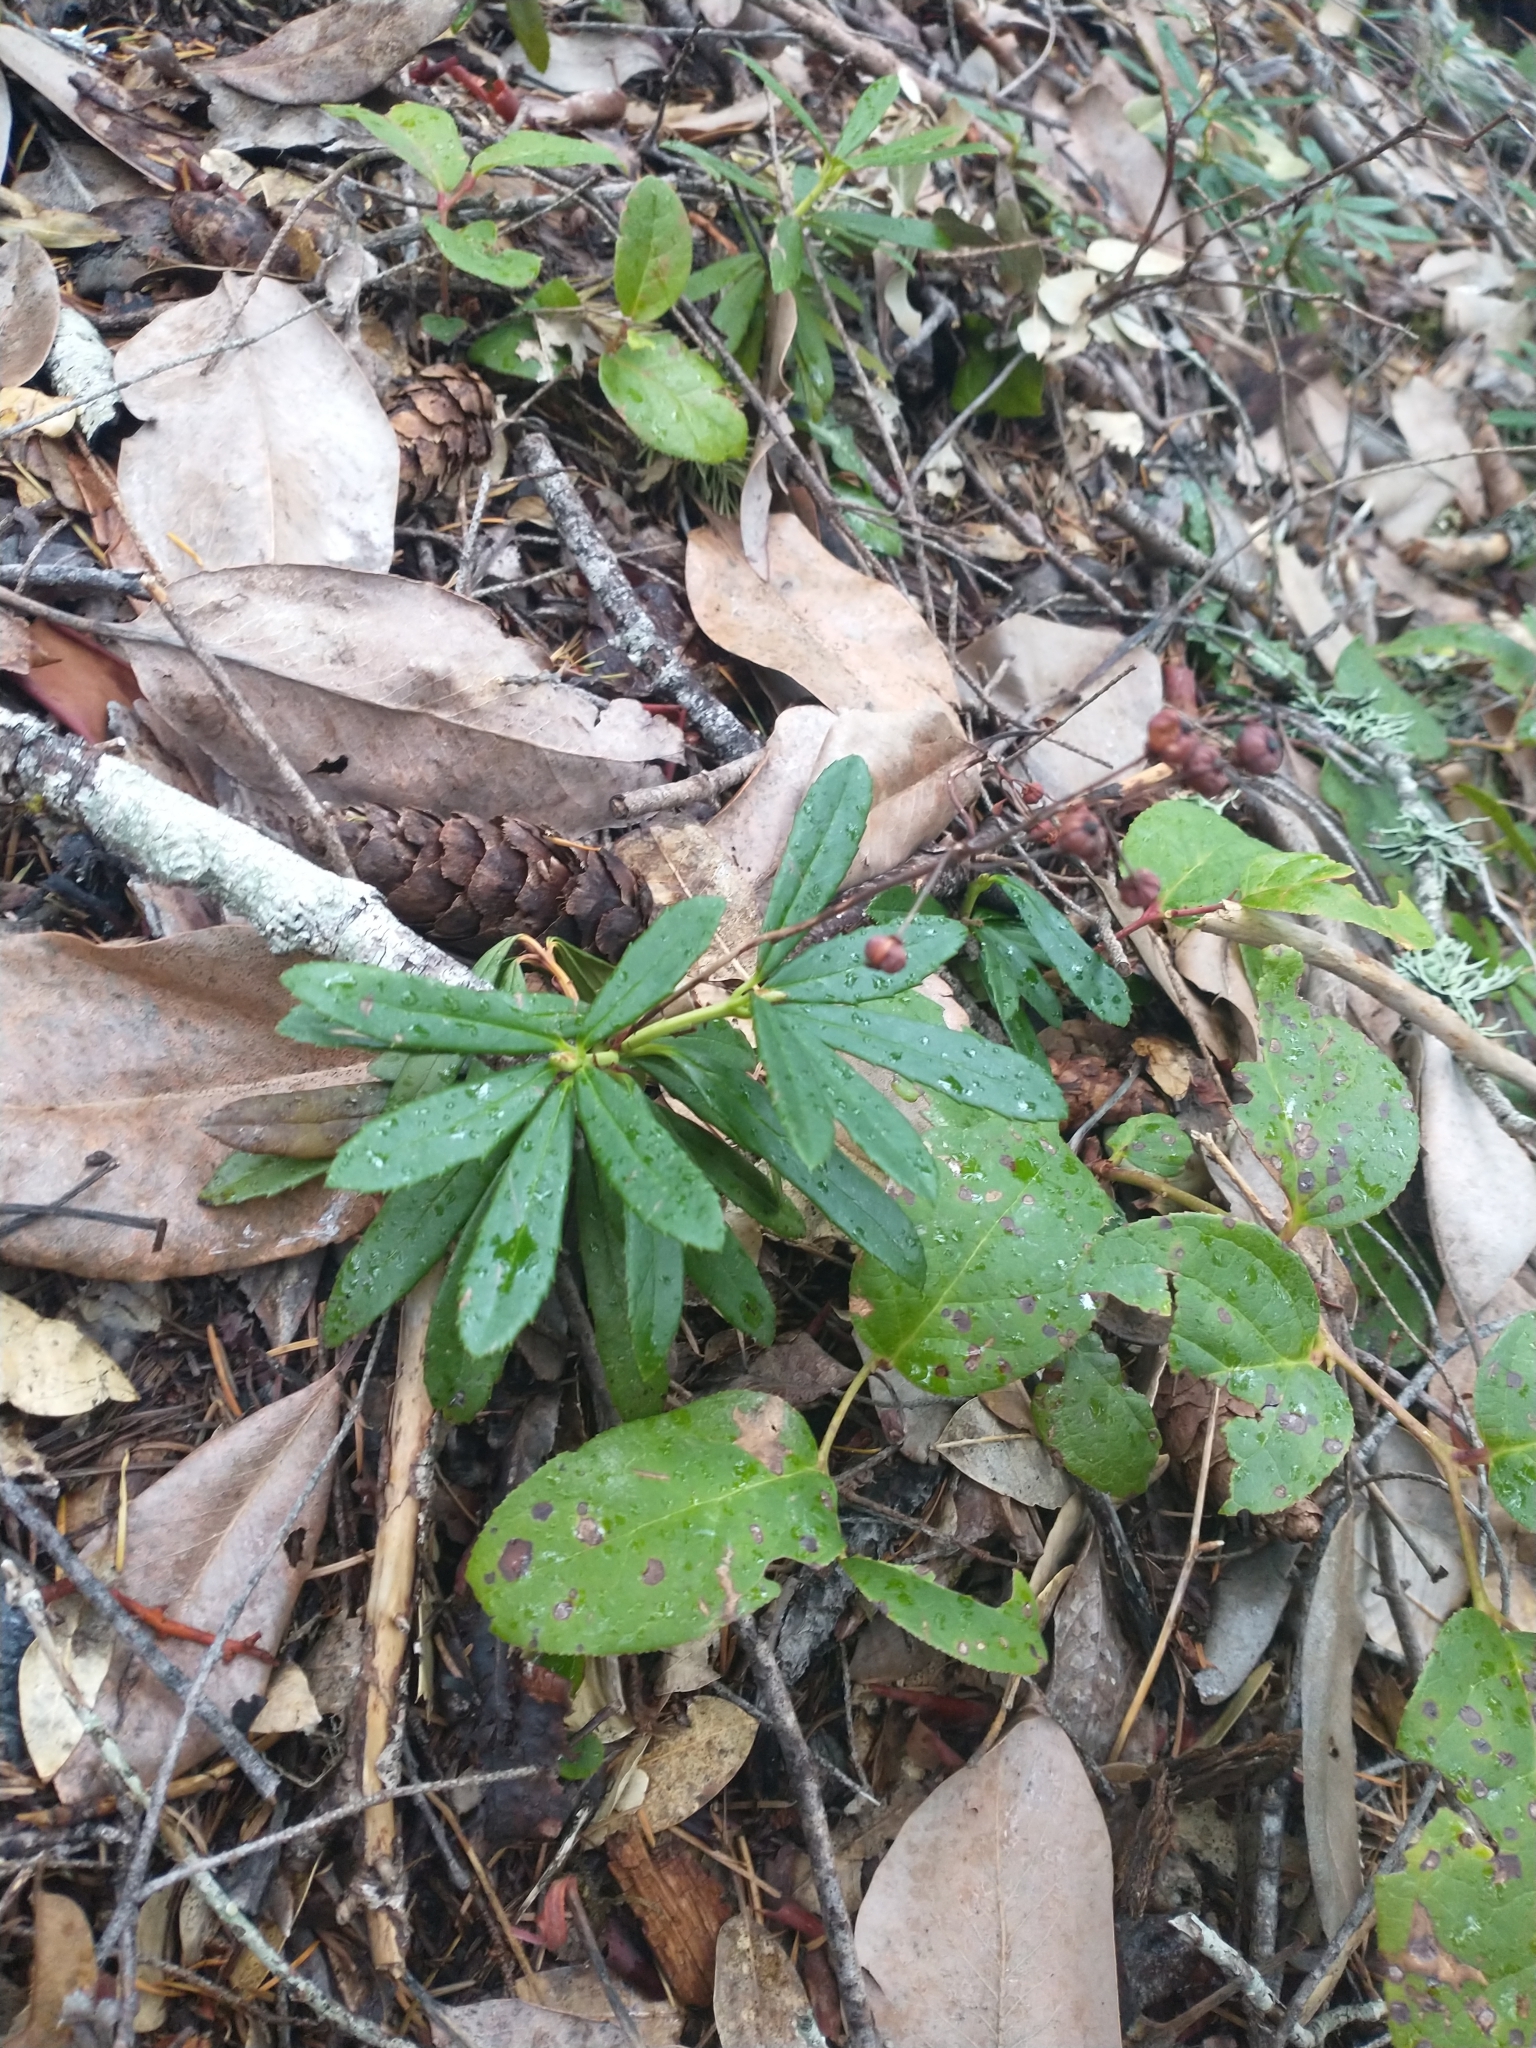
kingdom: Plantae
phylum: Tracheophyta
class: Magnoliopsida
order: Ericales
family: Ericaceae
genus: Chimaphila
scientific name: Chimaphila umbellata
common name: Pipsissewa
